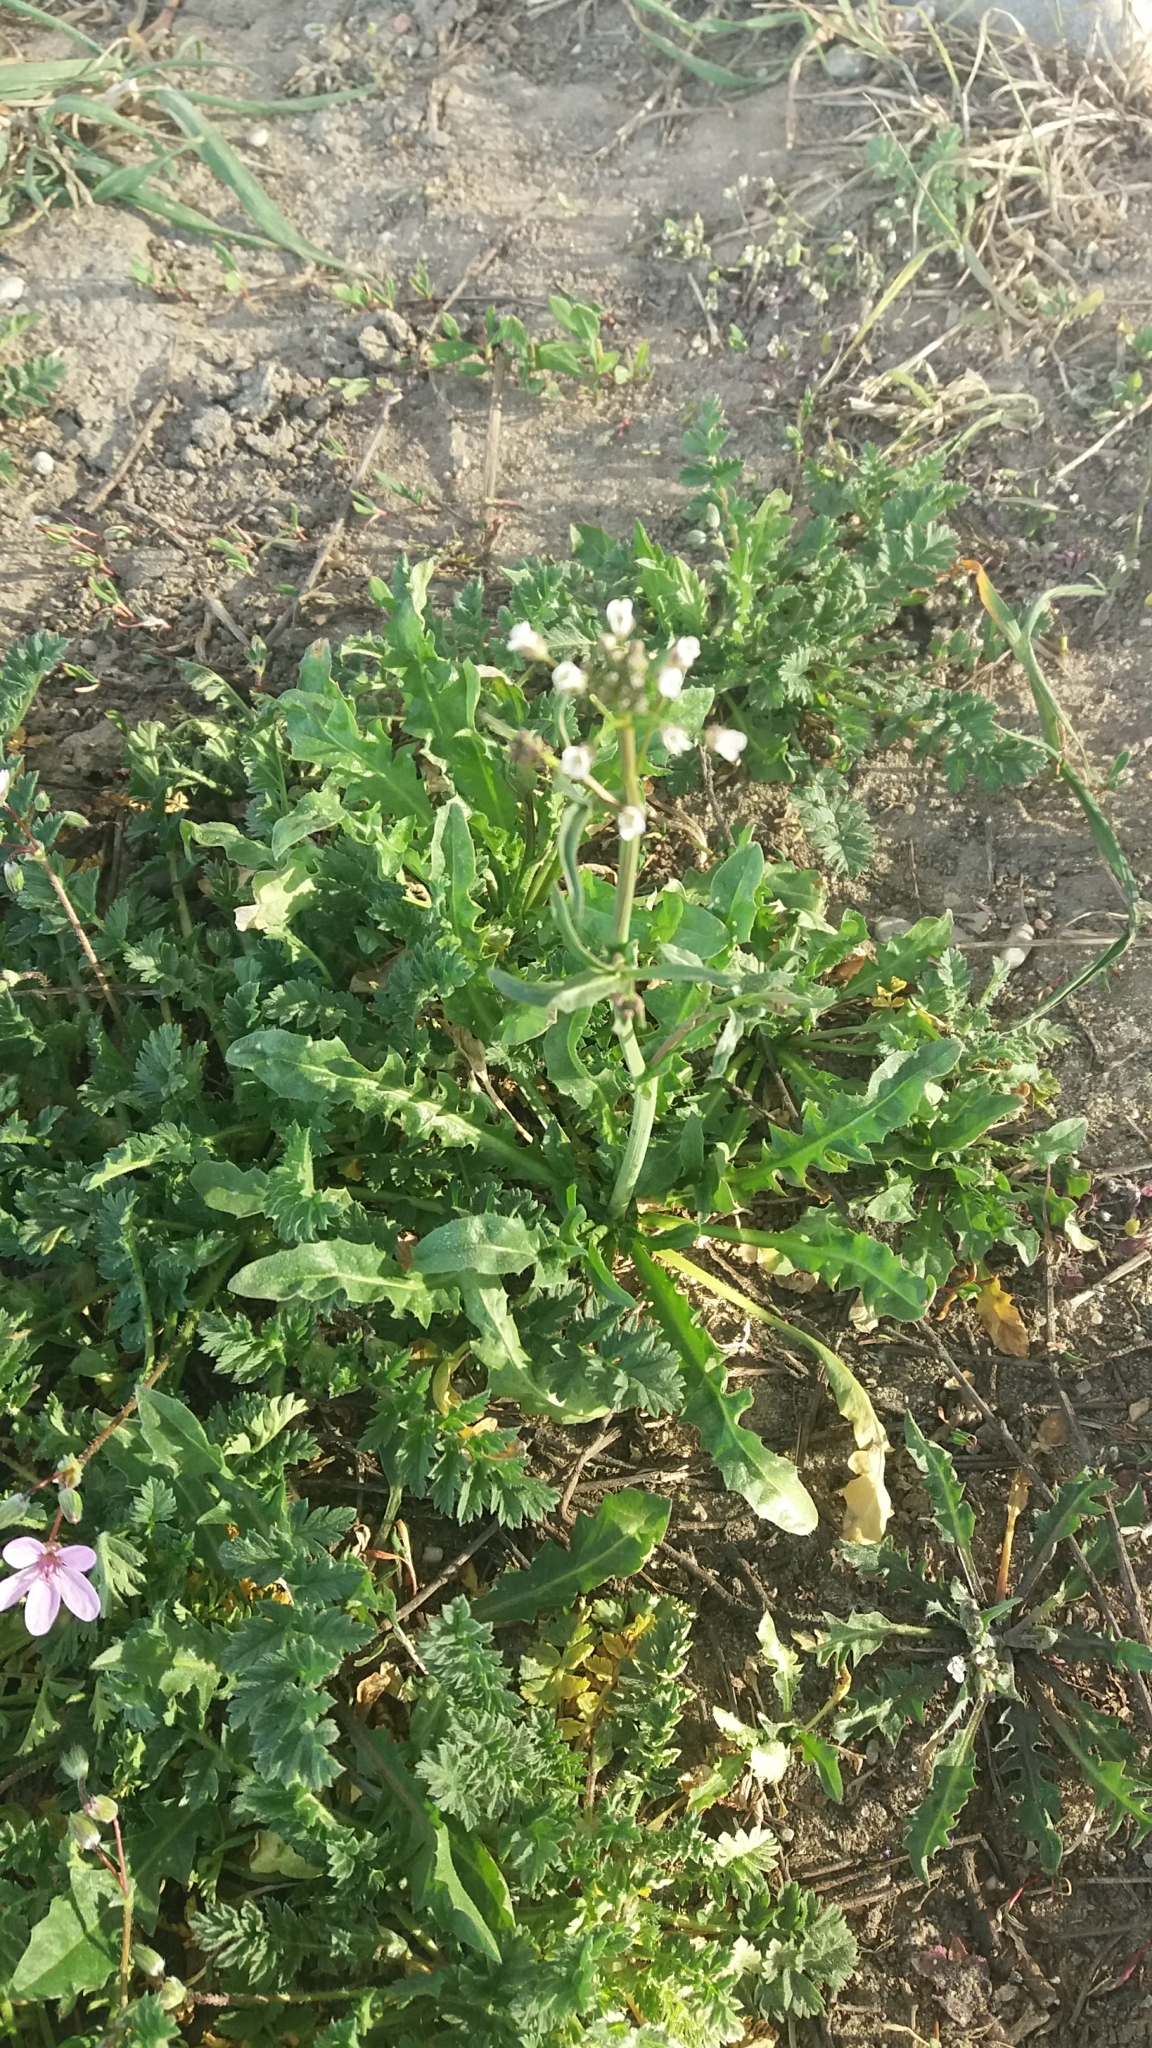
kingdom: Plantae
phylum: Tracheophyta
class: Magnoliopsida
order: Brassicales
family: Brassicaceae
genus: Capsella
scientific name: Capsella bursa-pastoris
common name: Shepherd's purse
